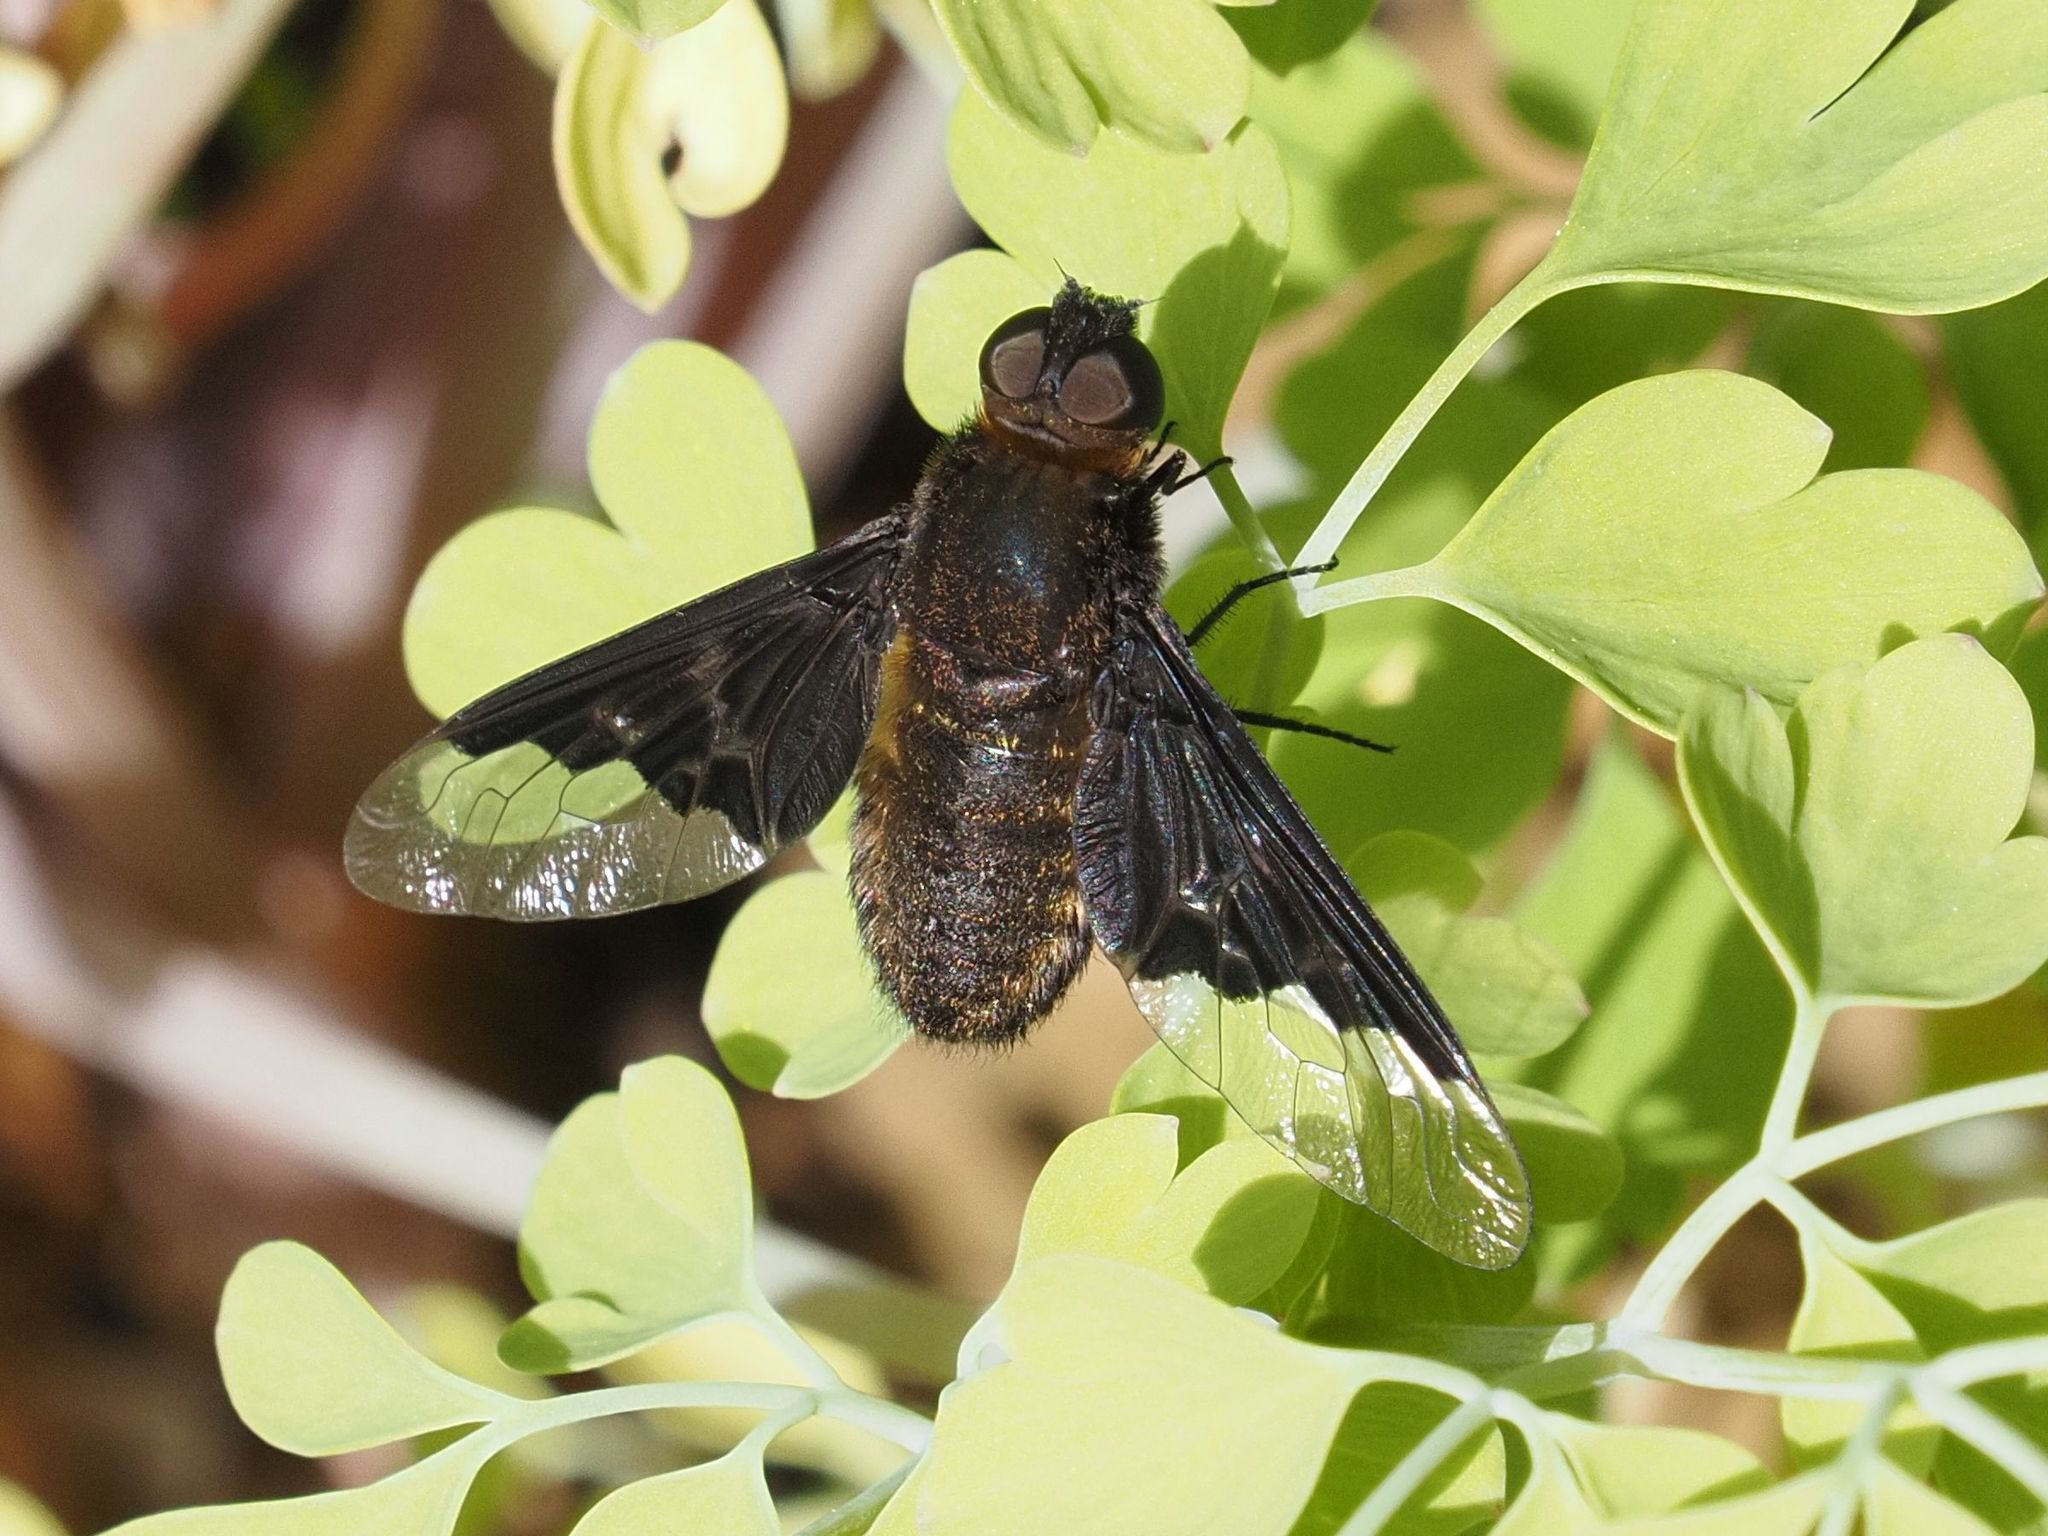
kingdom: Animalia
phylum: Arthropoda
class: Insecta
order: Diptera
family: Bombyliidae
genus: Hemipenthes
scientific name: Hemipenthes morio
